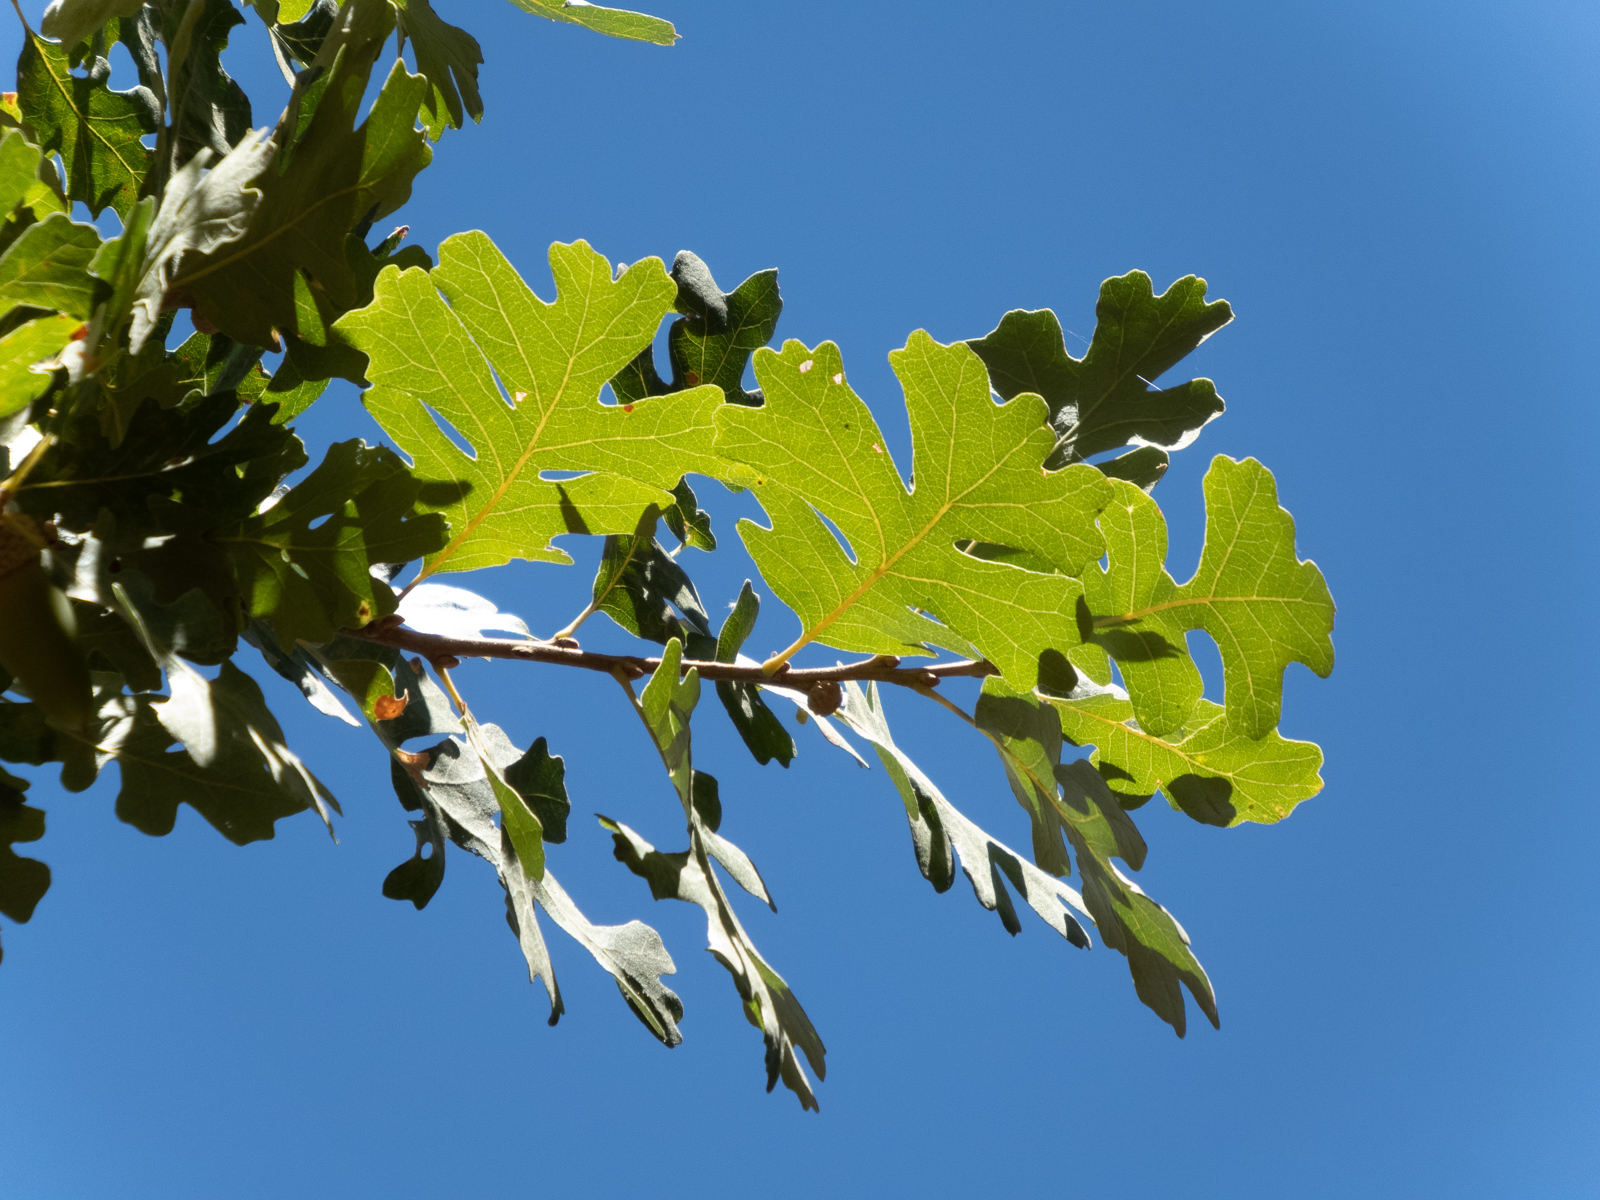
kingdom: Plantae
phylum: Tracheophyta
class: Magnoliopsida
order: Fagales
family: Fagaceae
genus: Quercus
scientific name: Quercus lobata
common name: Valley oak
